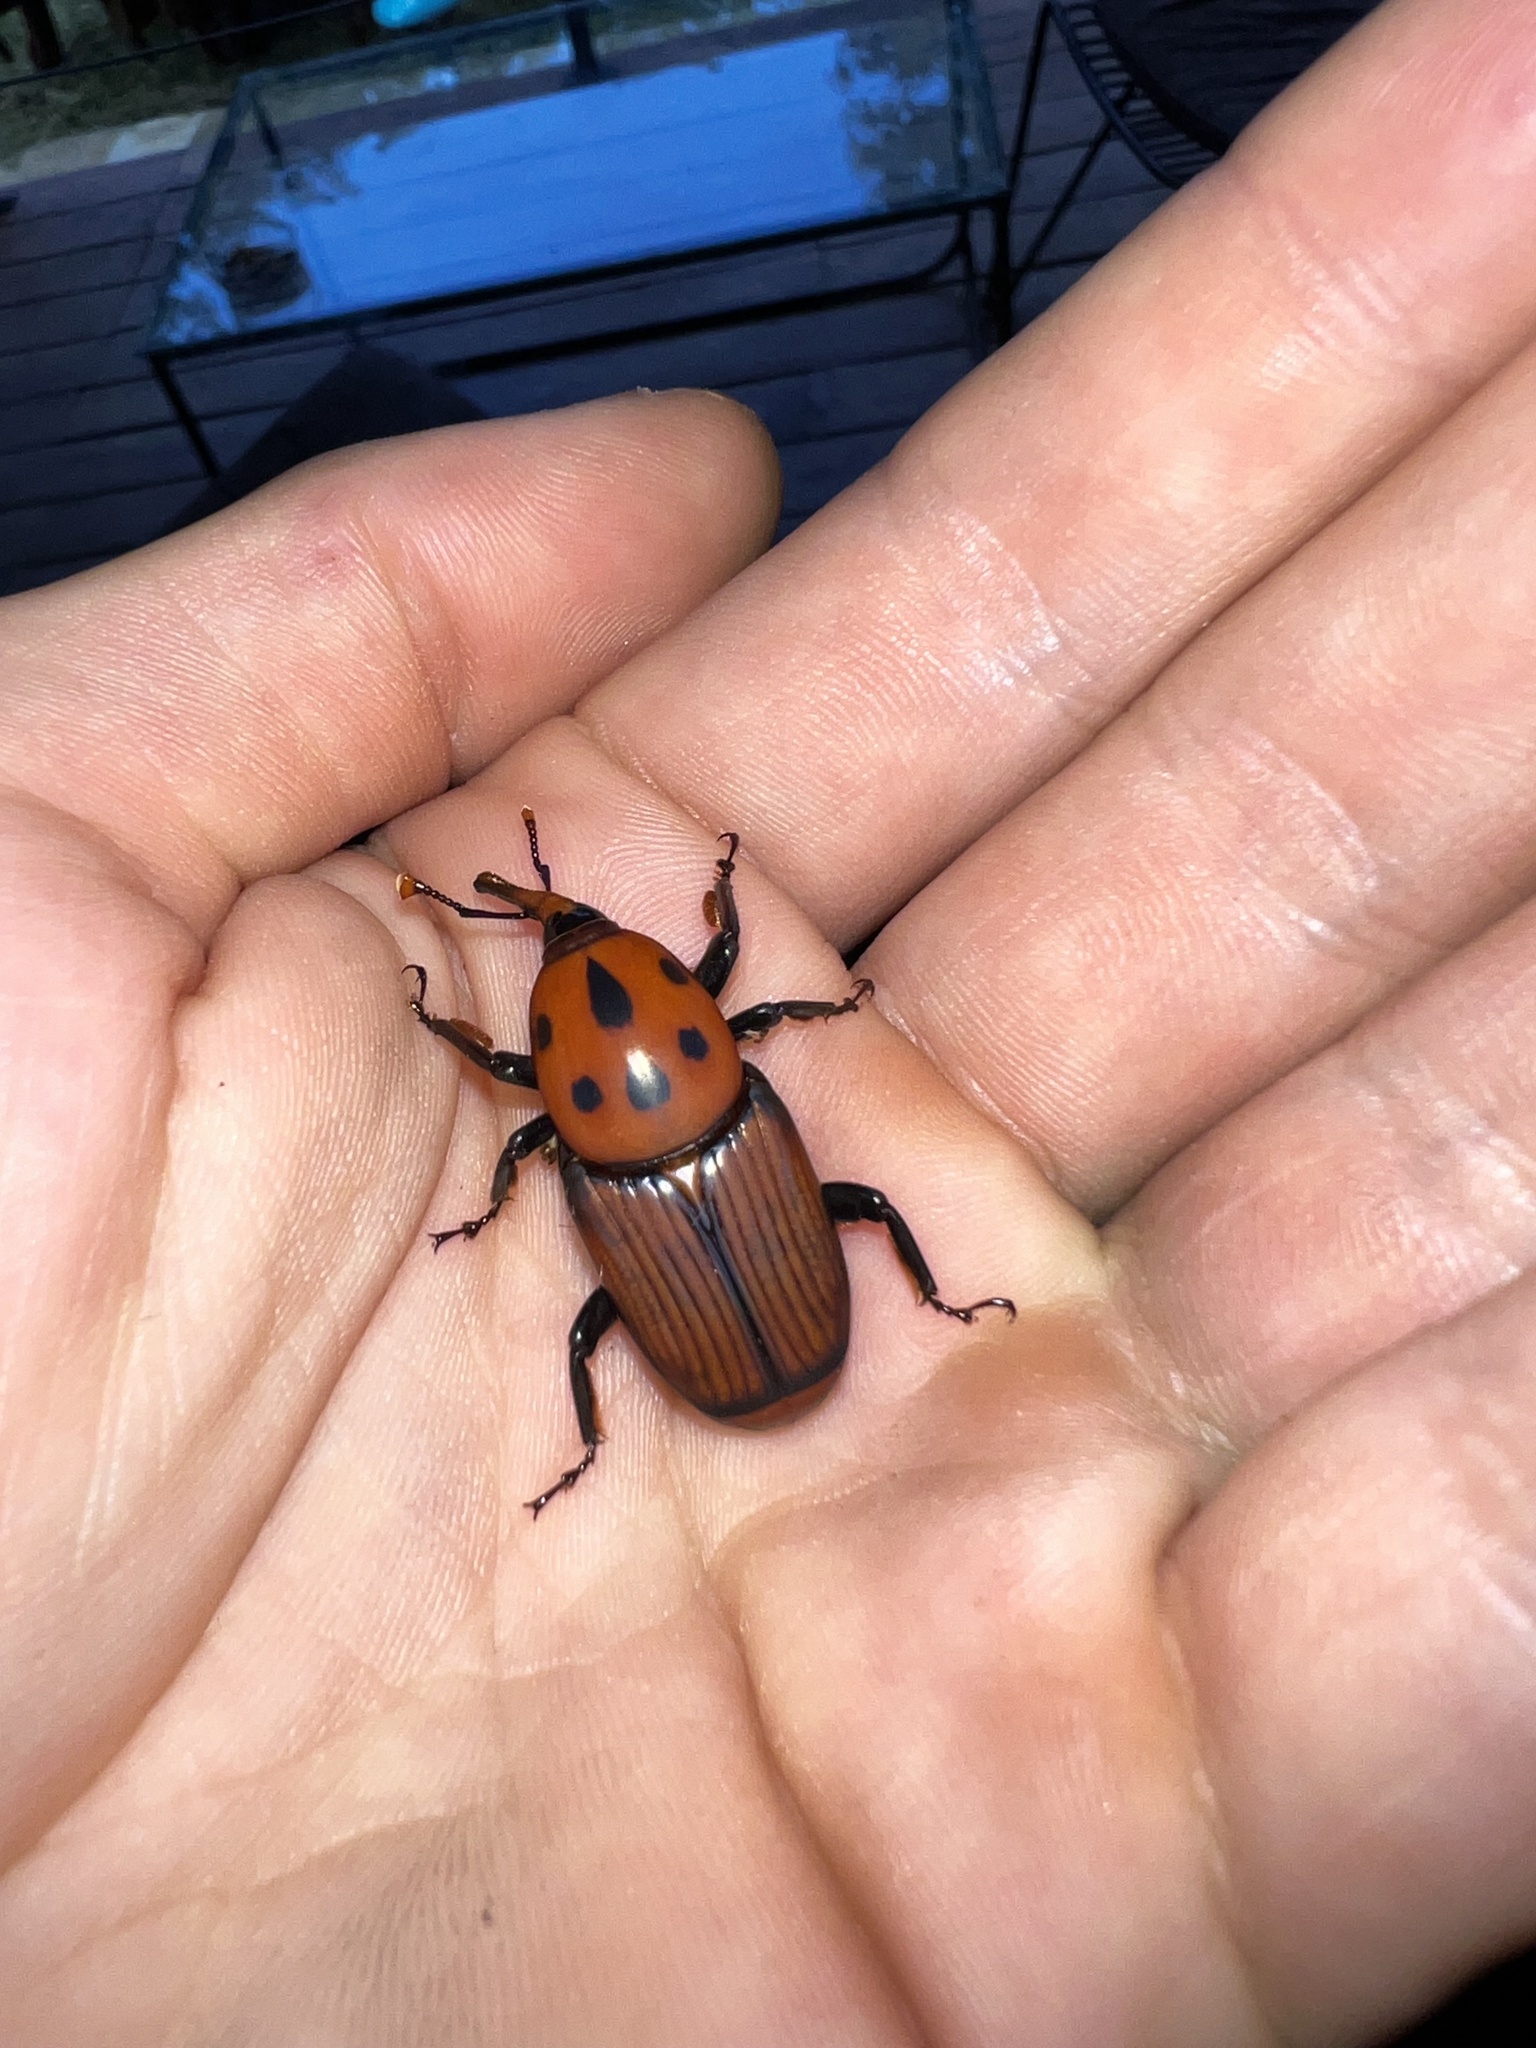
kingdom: Animalia
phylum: Arthropoda
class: Insecta
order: Coleoptera
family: Dryophthoridae
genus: Rhynchophorus
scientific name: Rhynchophorus ferrugineus
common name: Red palm weevil
